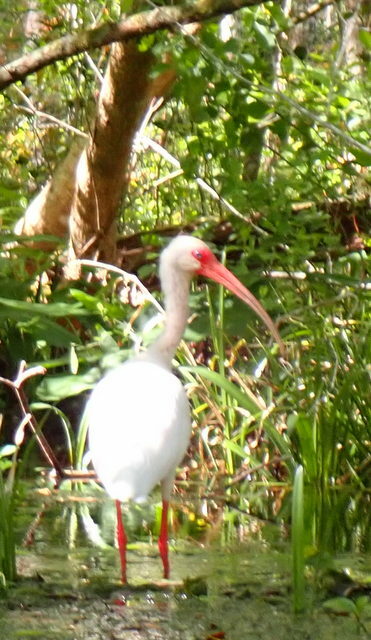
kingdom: Animalia
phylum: Chordata
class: Aves
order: Pelecaniformes
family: Threskiornithidae
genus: Eudocimus
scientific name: Eudocimus albus
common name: White ibis
